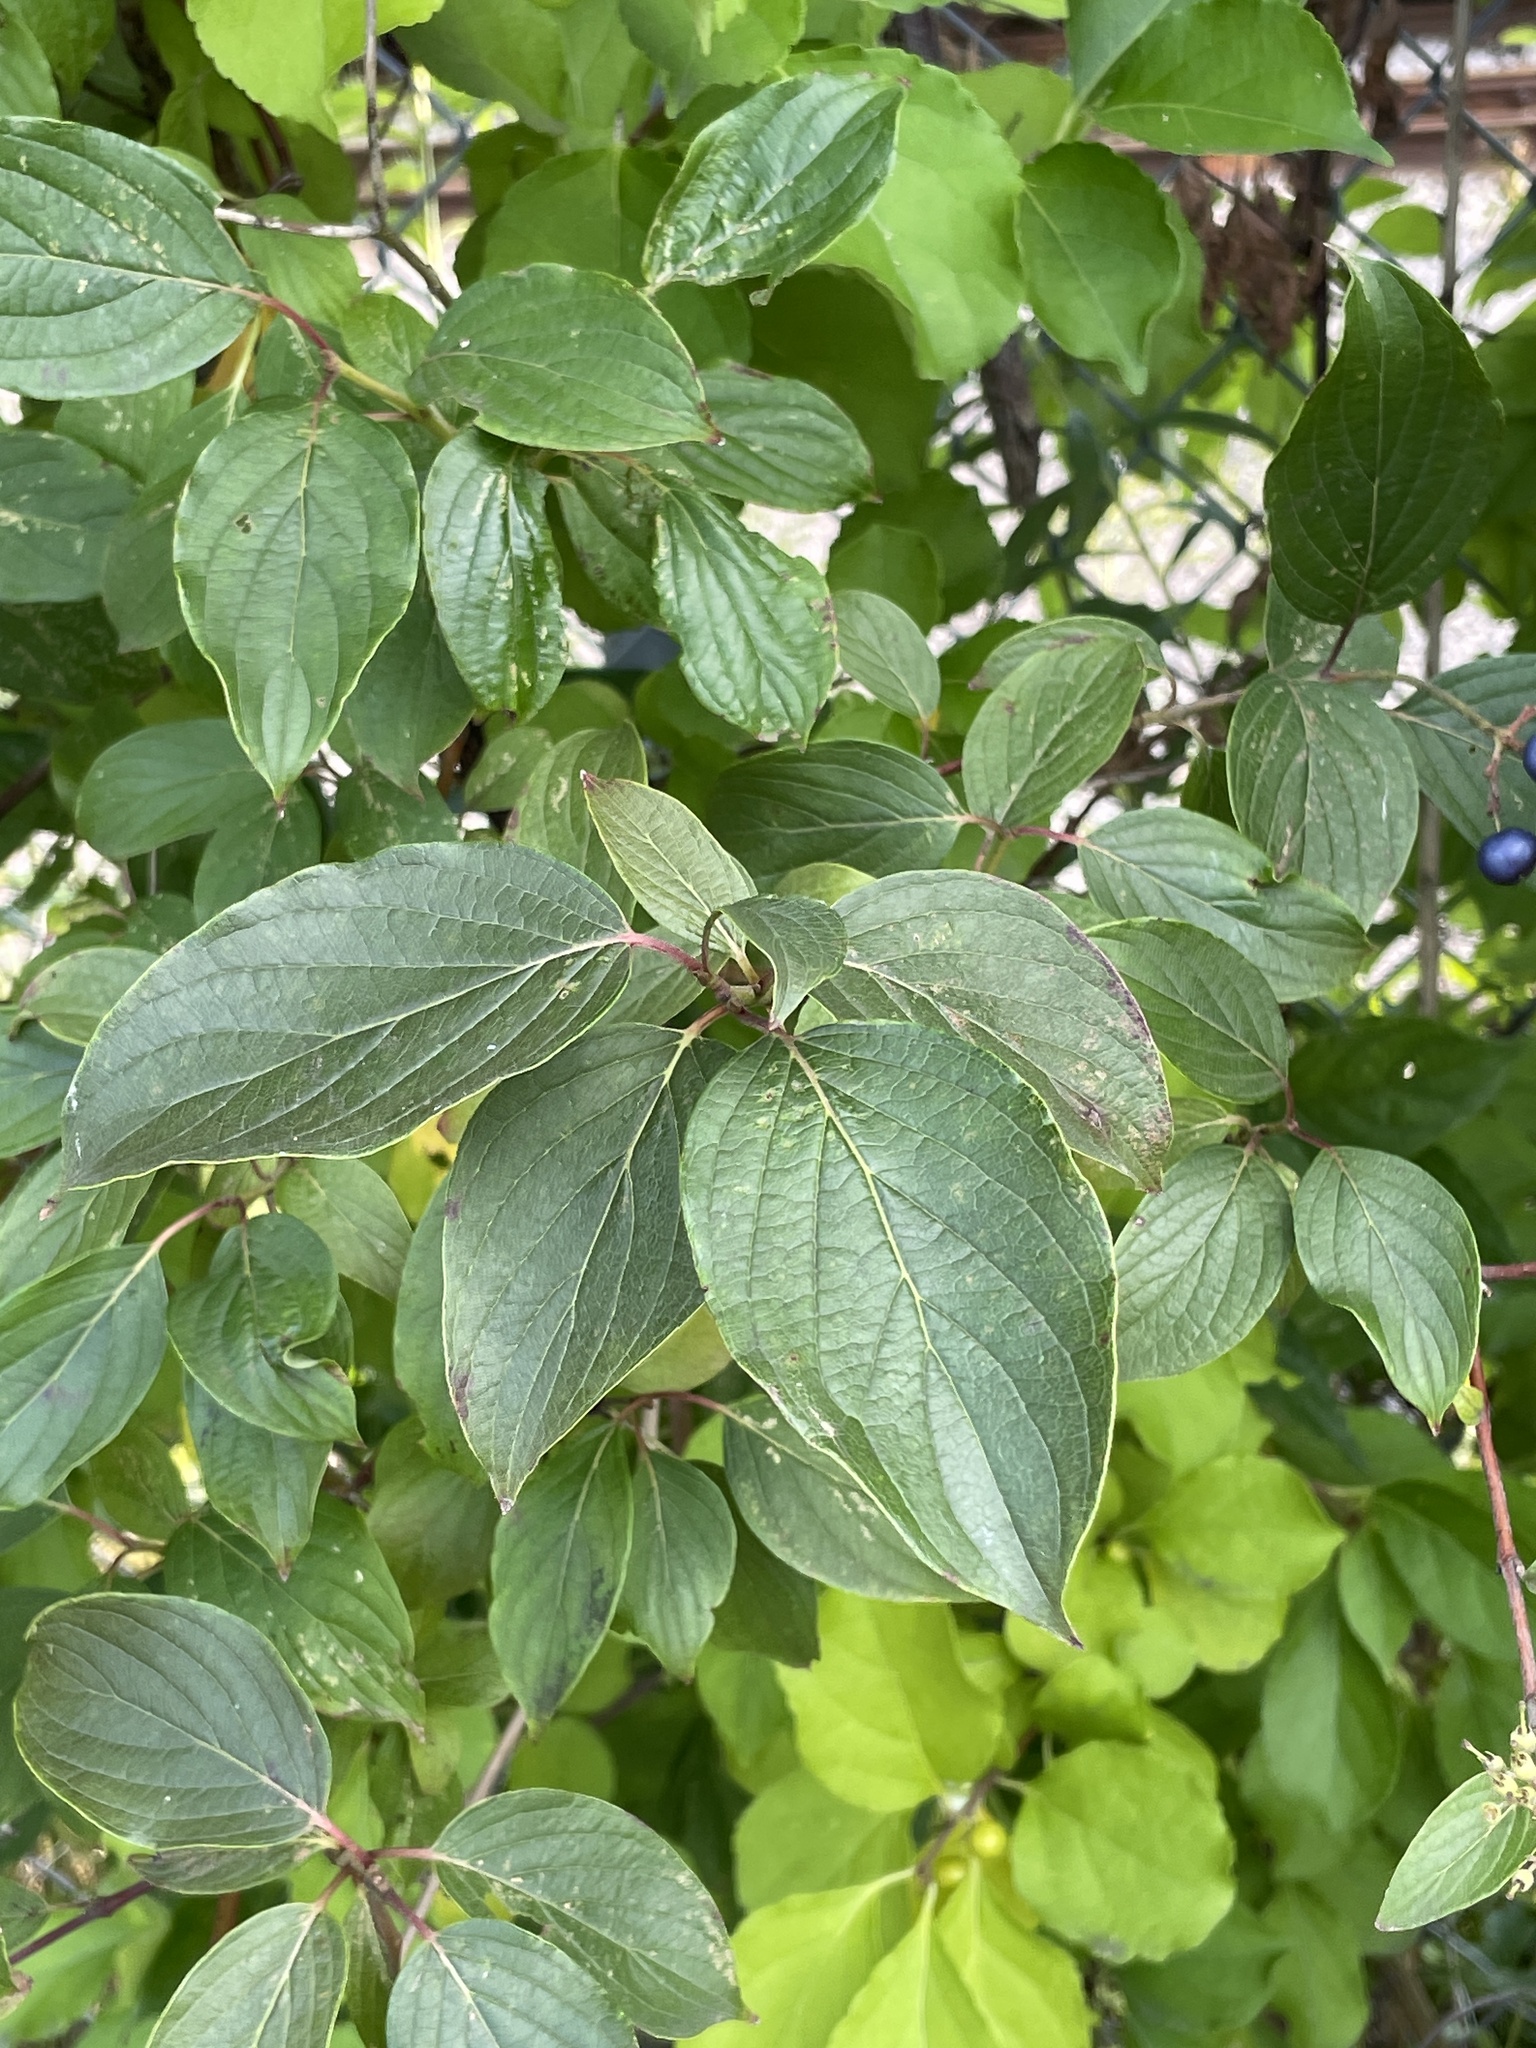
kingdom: Plantae
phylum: Tracheophyta
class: Magnoliopsida
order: Cornales
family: Cornaceae
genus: Cornus
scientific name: Cornus obliqua
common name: Pale dogwood
